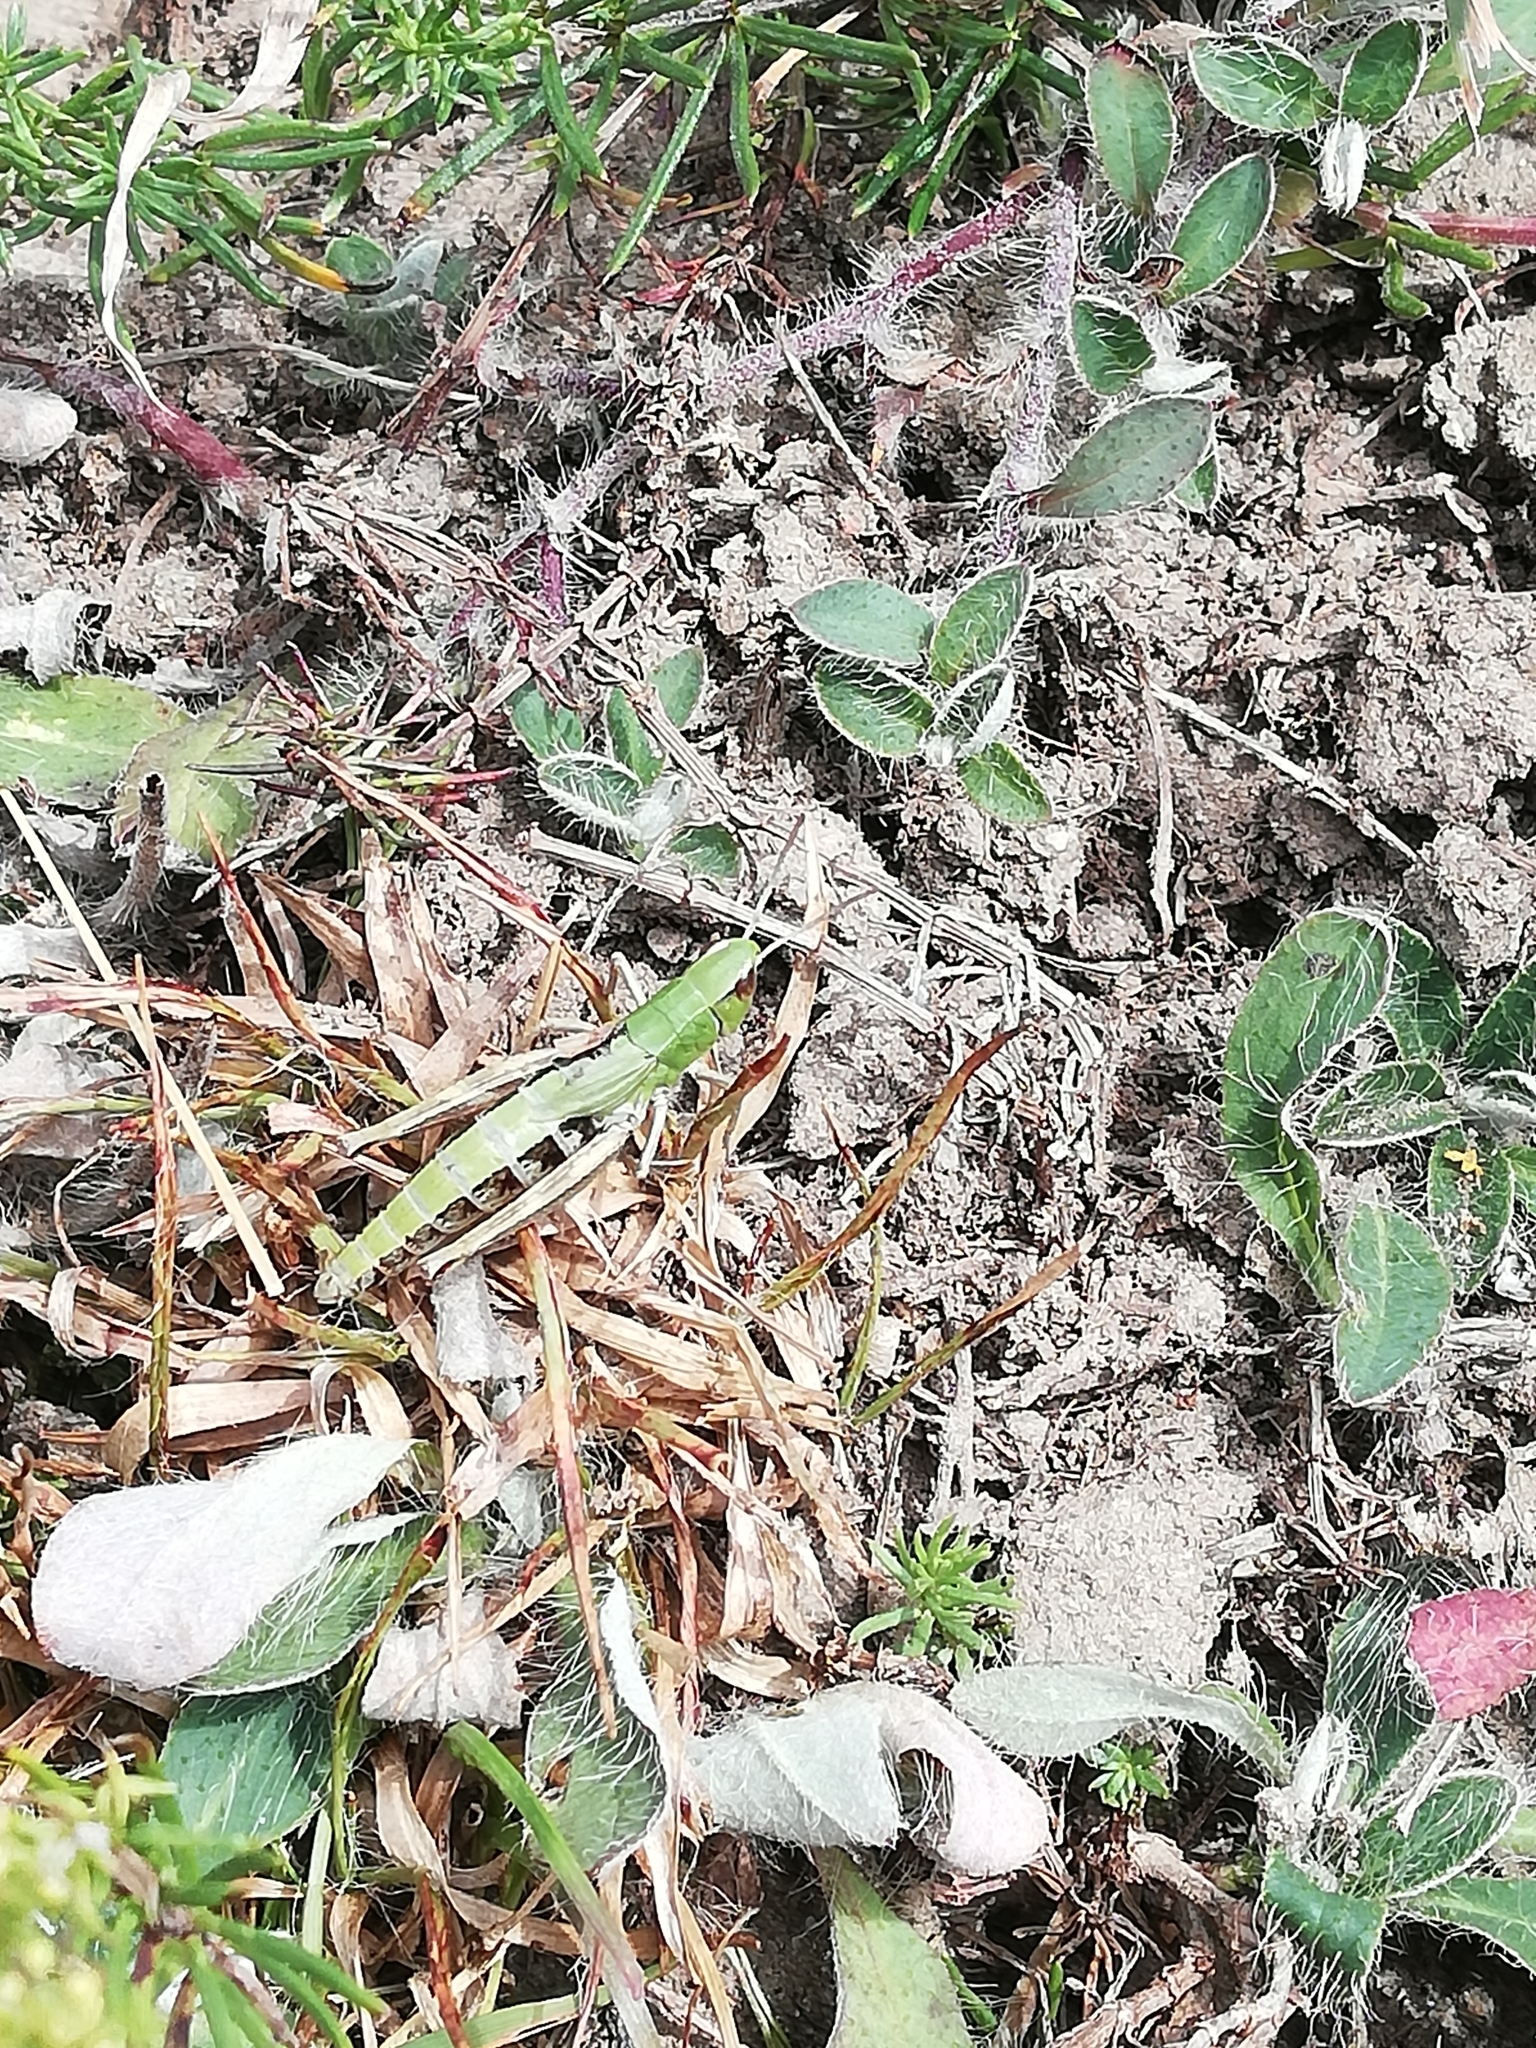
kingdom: Animalia
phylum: Arthropoda
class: Insecta
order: Orthoptera
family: Acrididae
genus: Pseudochorthippus
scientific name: Pseudochorthippus parallelus
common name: Meadow grasshopper
